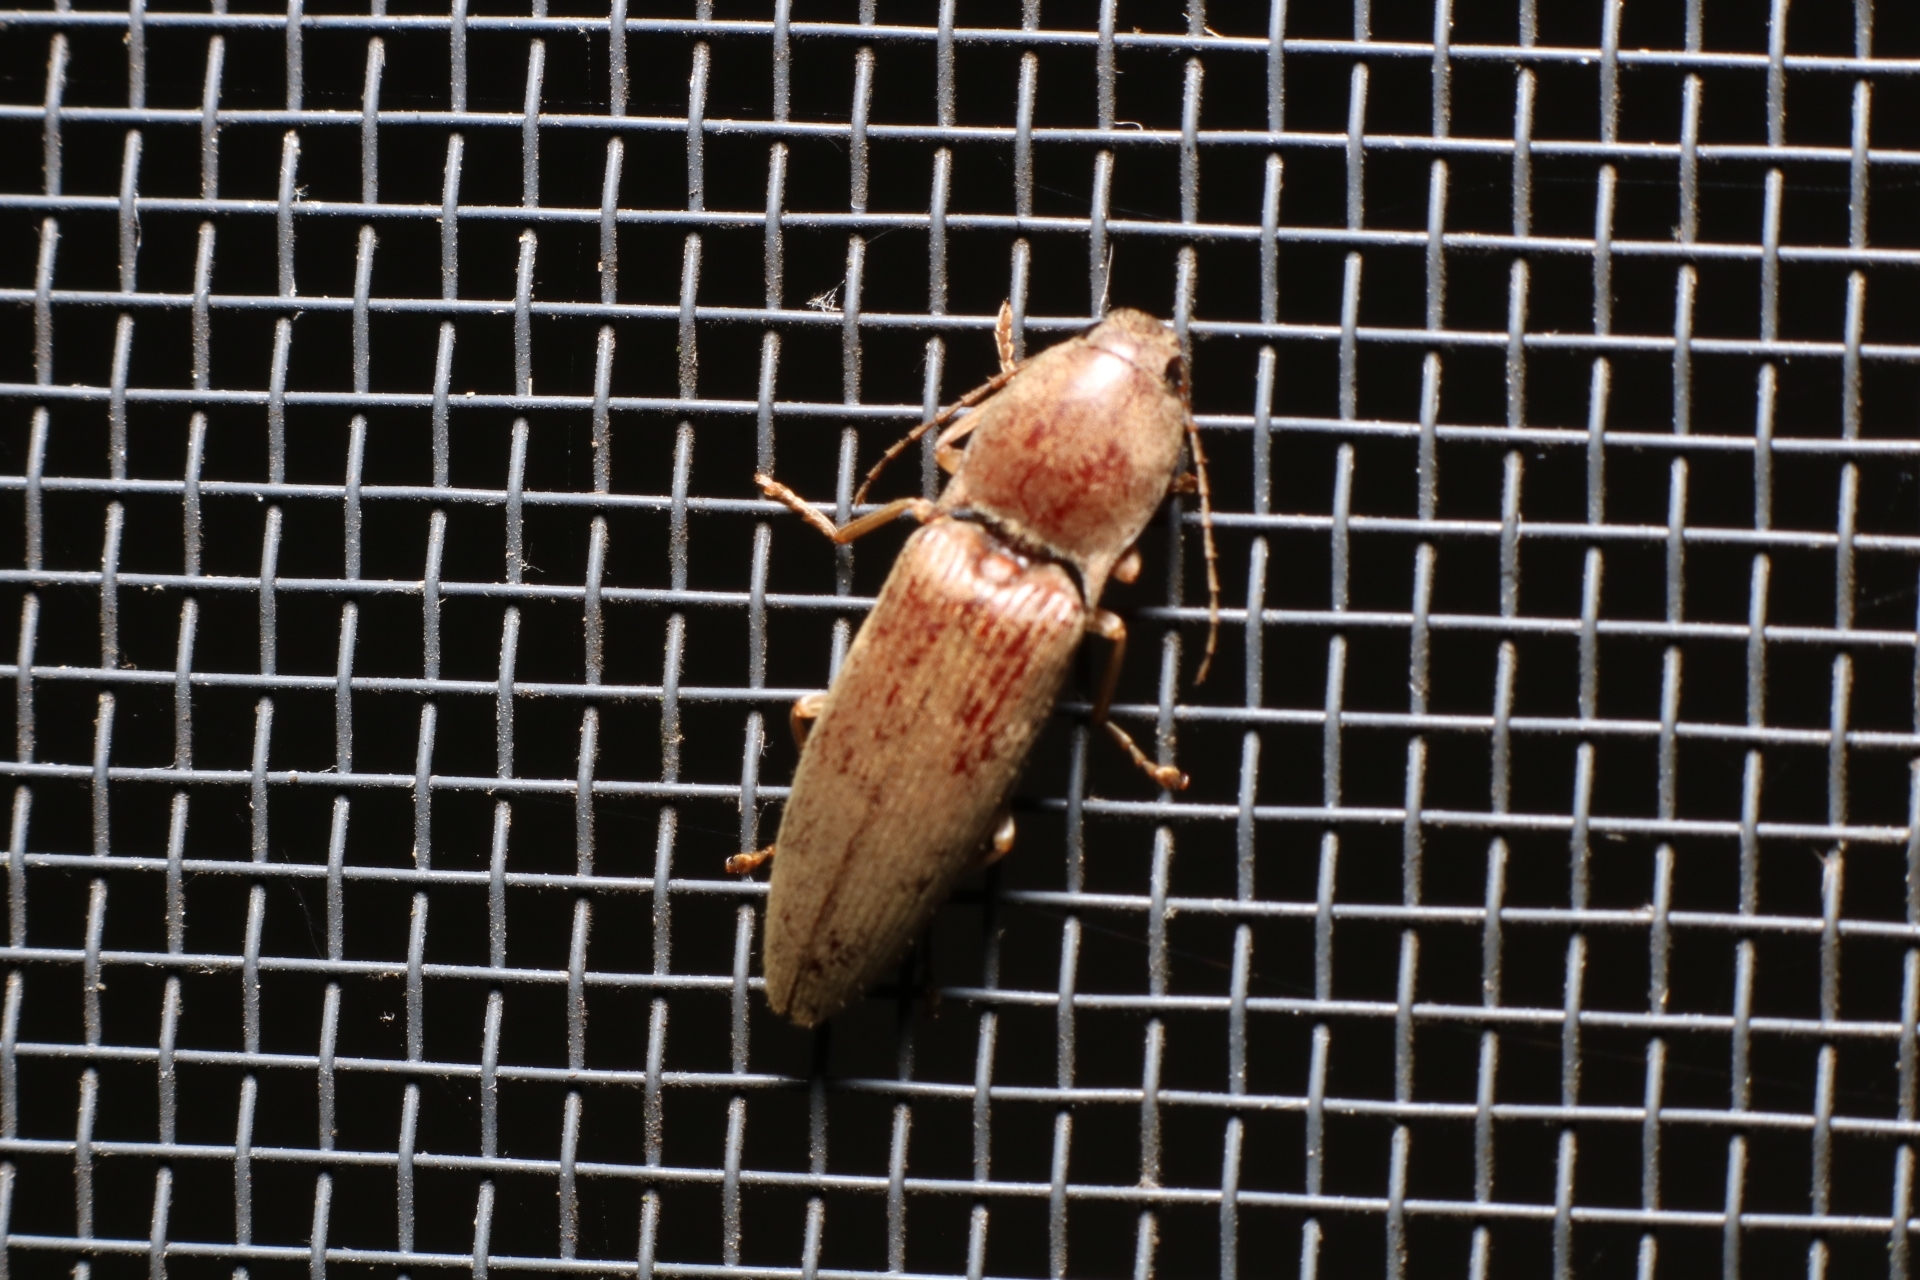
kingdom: Animalia
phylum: Arthropoda
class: Insecta
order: Coleoptera
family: Elateridae
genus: Monocrepidius
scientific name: Monocrepidius lividus
